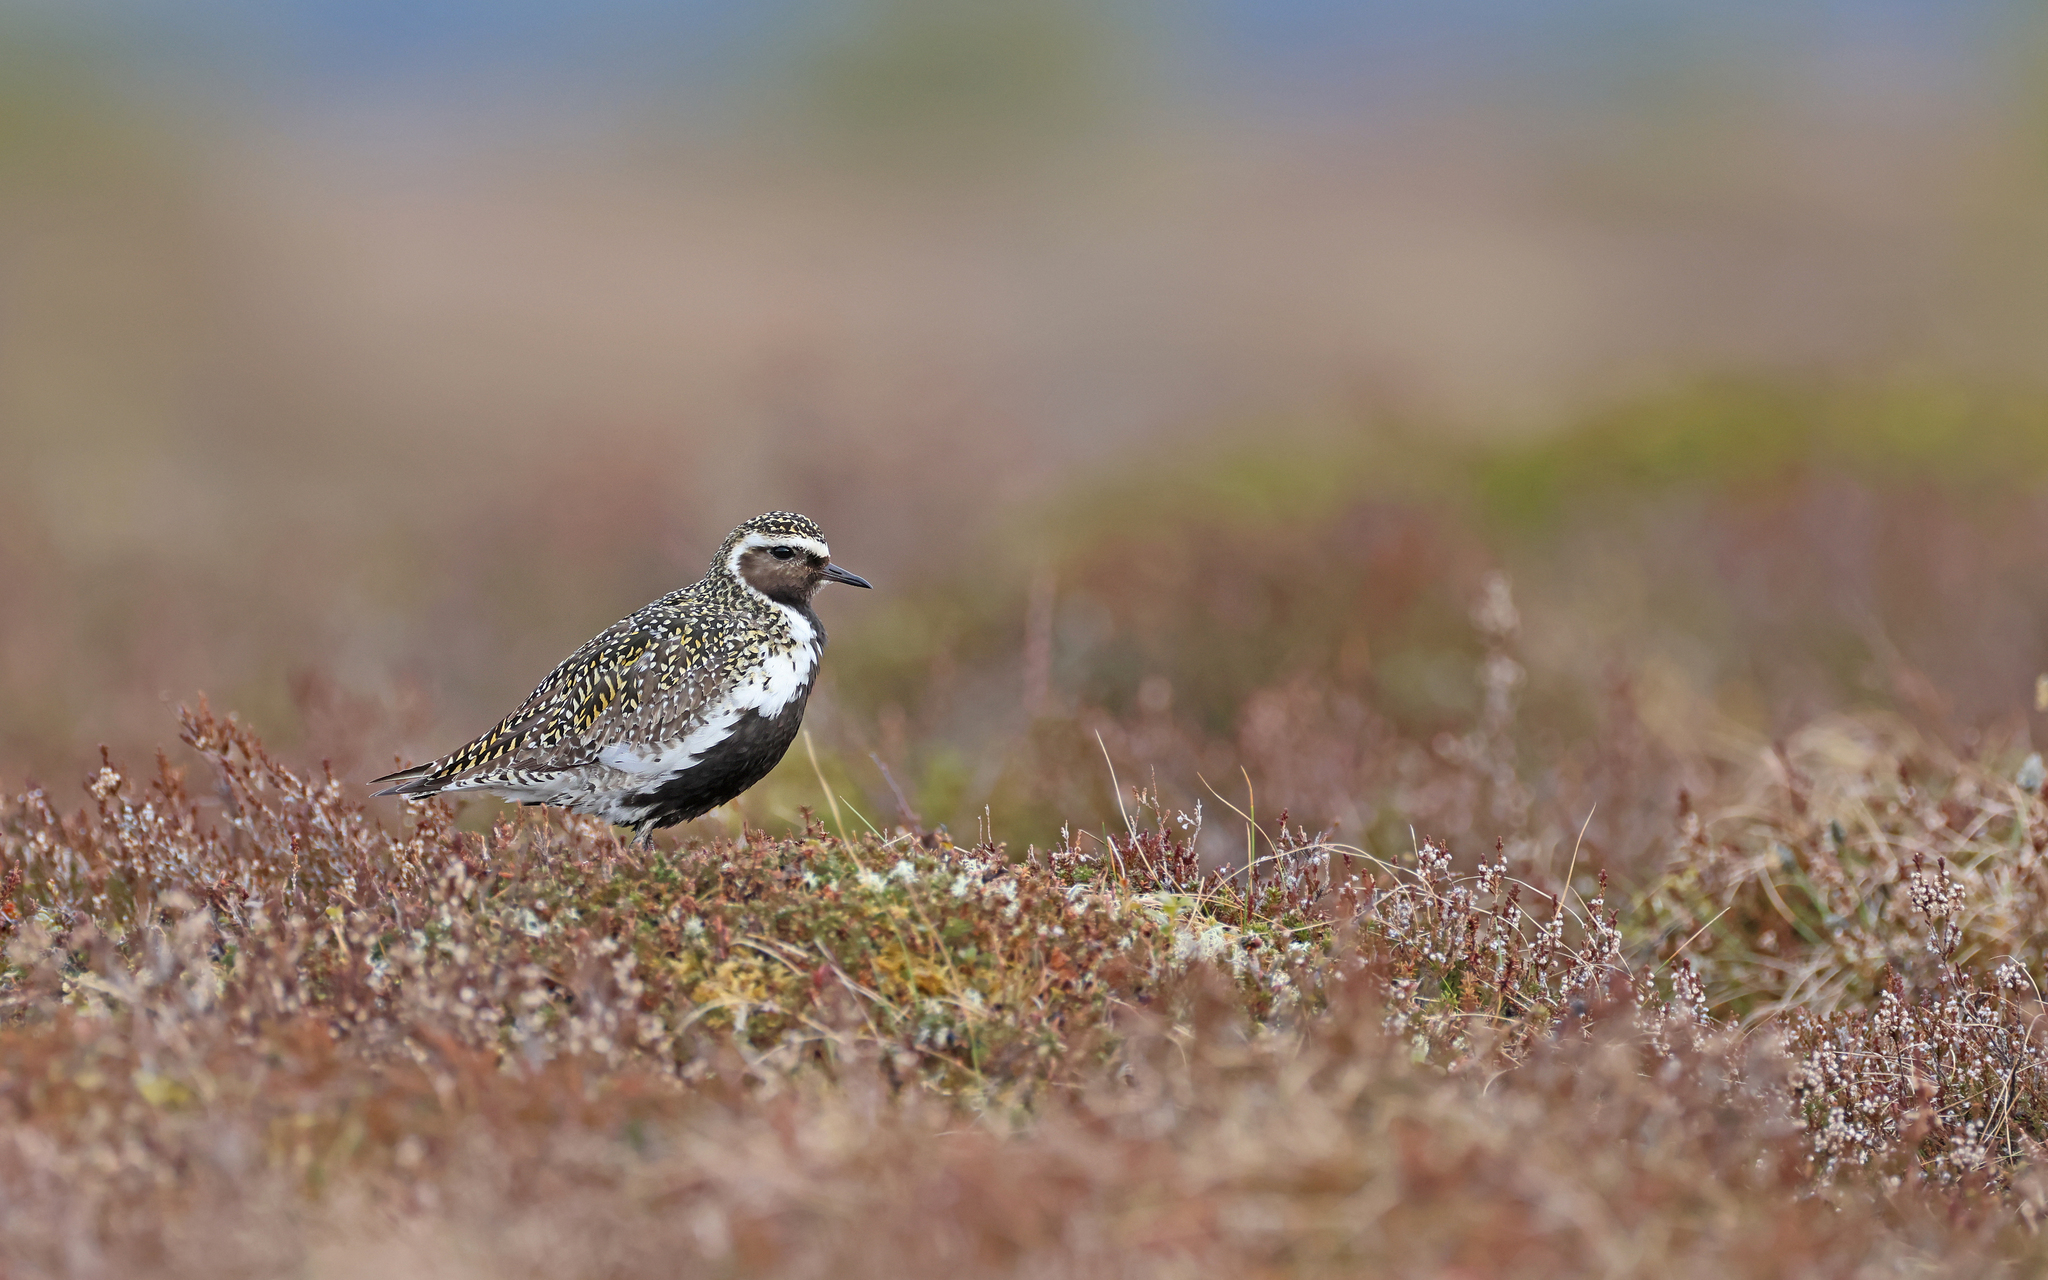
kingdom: Animalia
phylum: Chordata
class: Aves
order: Charadriiformes
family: Charadriidae
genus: Pluvialis
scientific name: Pluvialis apricaria
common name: European golden plover
